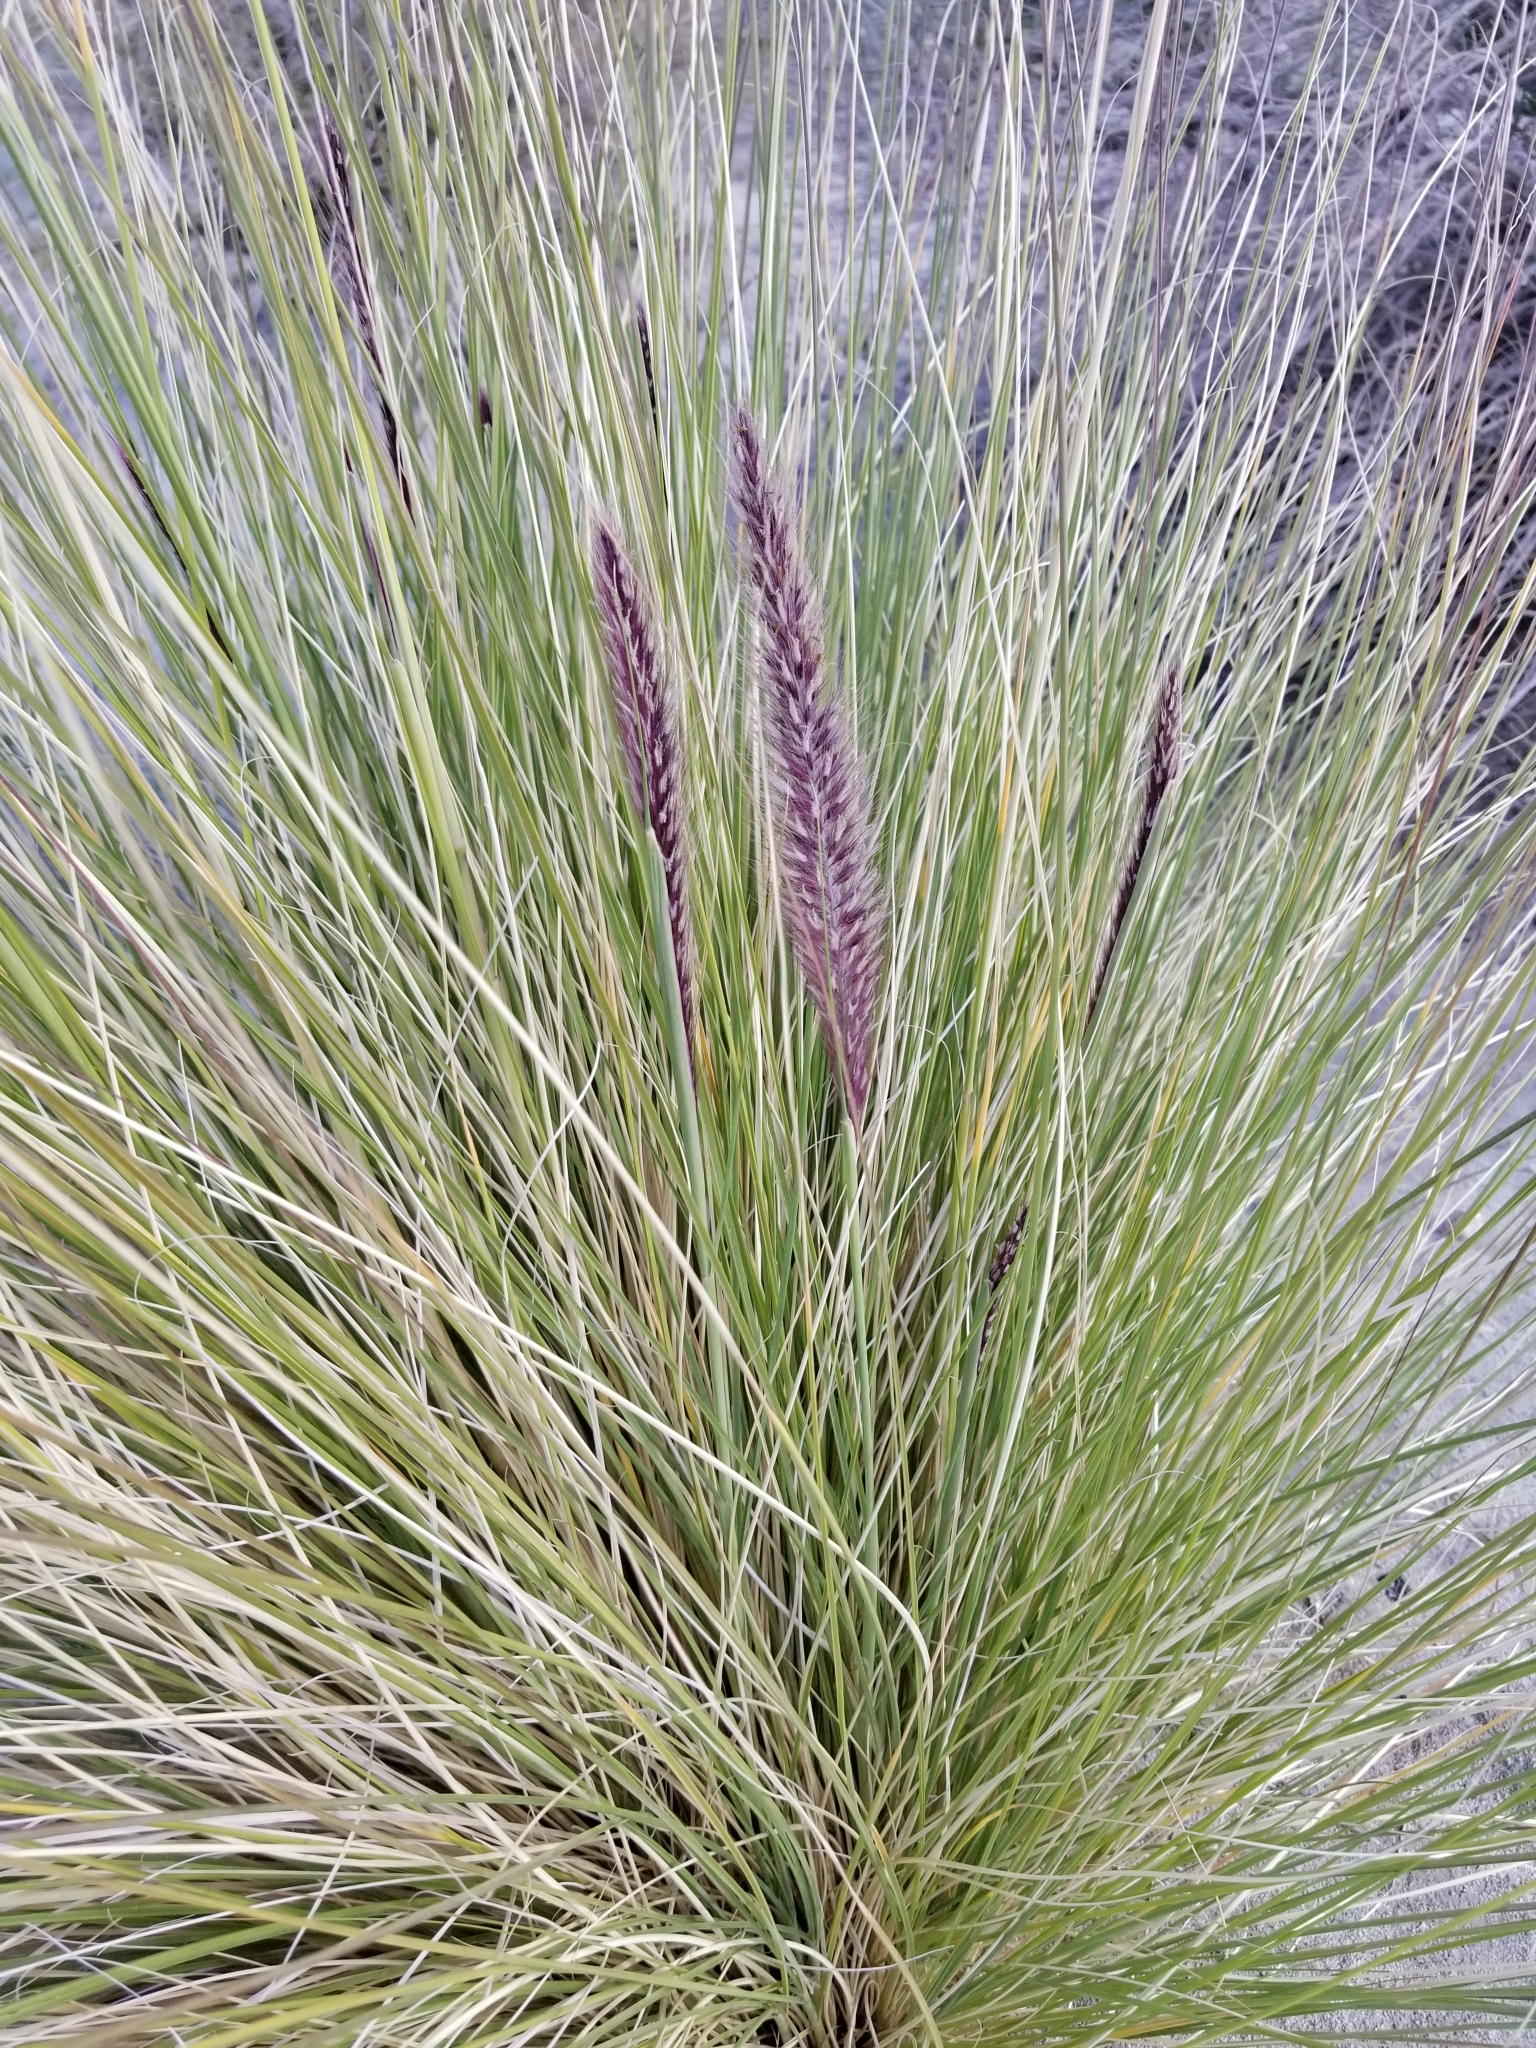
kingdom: Plantae
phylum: Tracheophyta
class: Liliopsida
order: Poales
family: Poaceae
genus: Cenchrus
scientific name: Cenchrus setaceus
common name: Crimson fountaingrass
